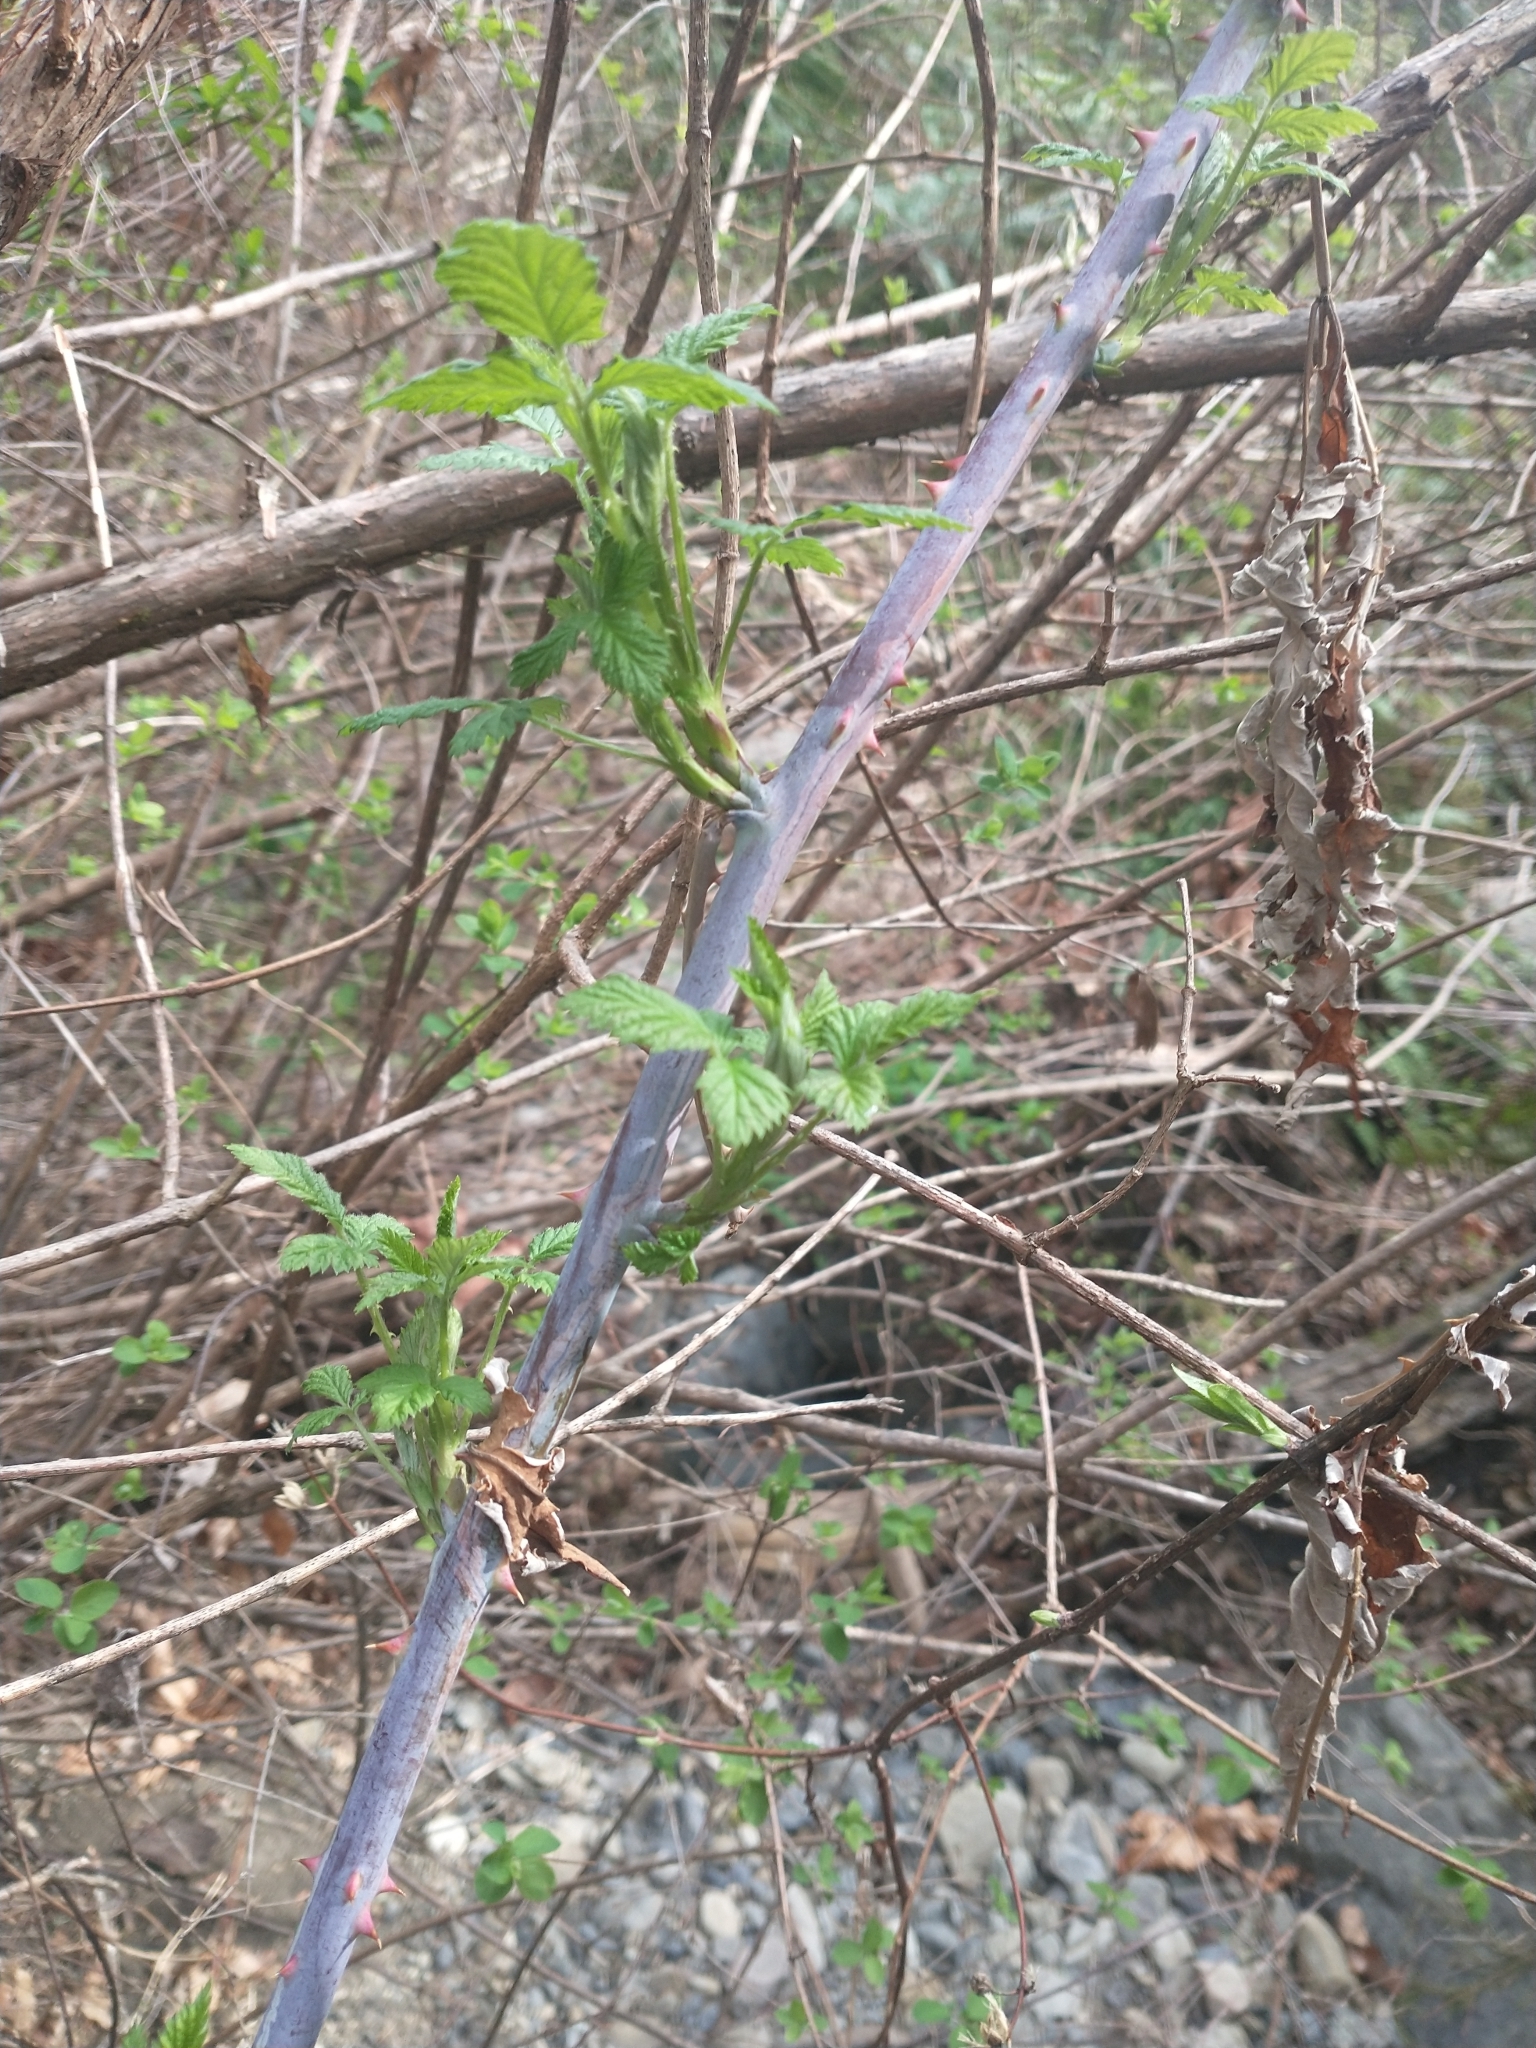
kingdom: Plantae
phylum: Tracheophyta
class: Magnoliopsida
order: Rosales
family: Rosaceae
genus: Rubus
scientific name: Rubus leucodermis
